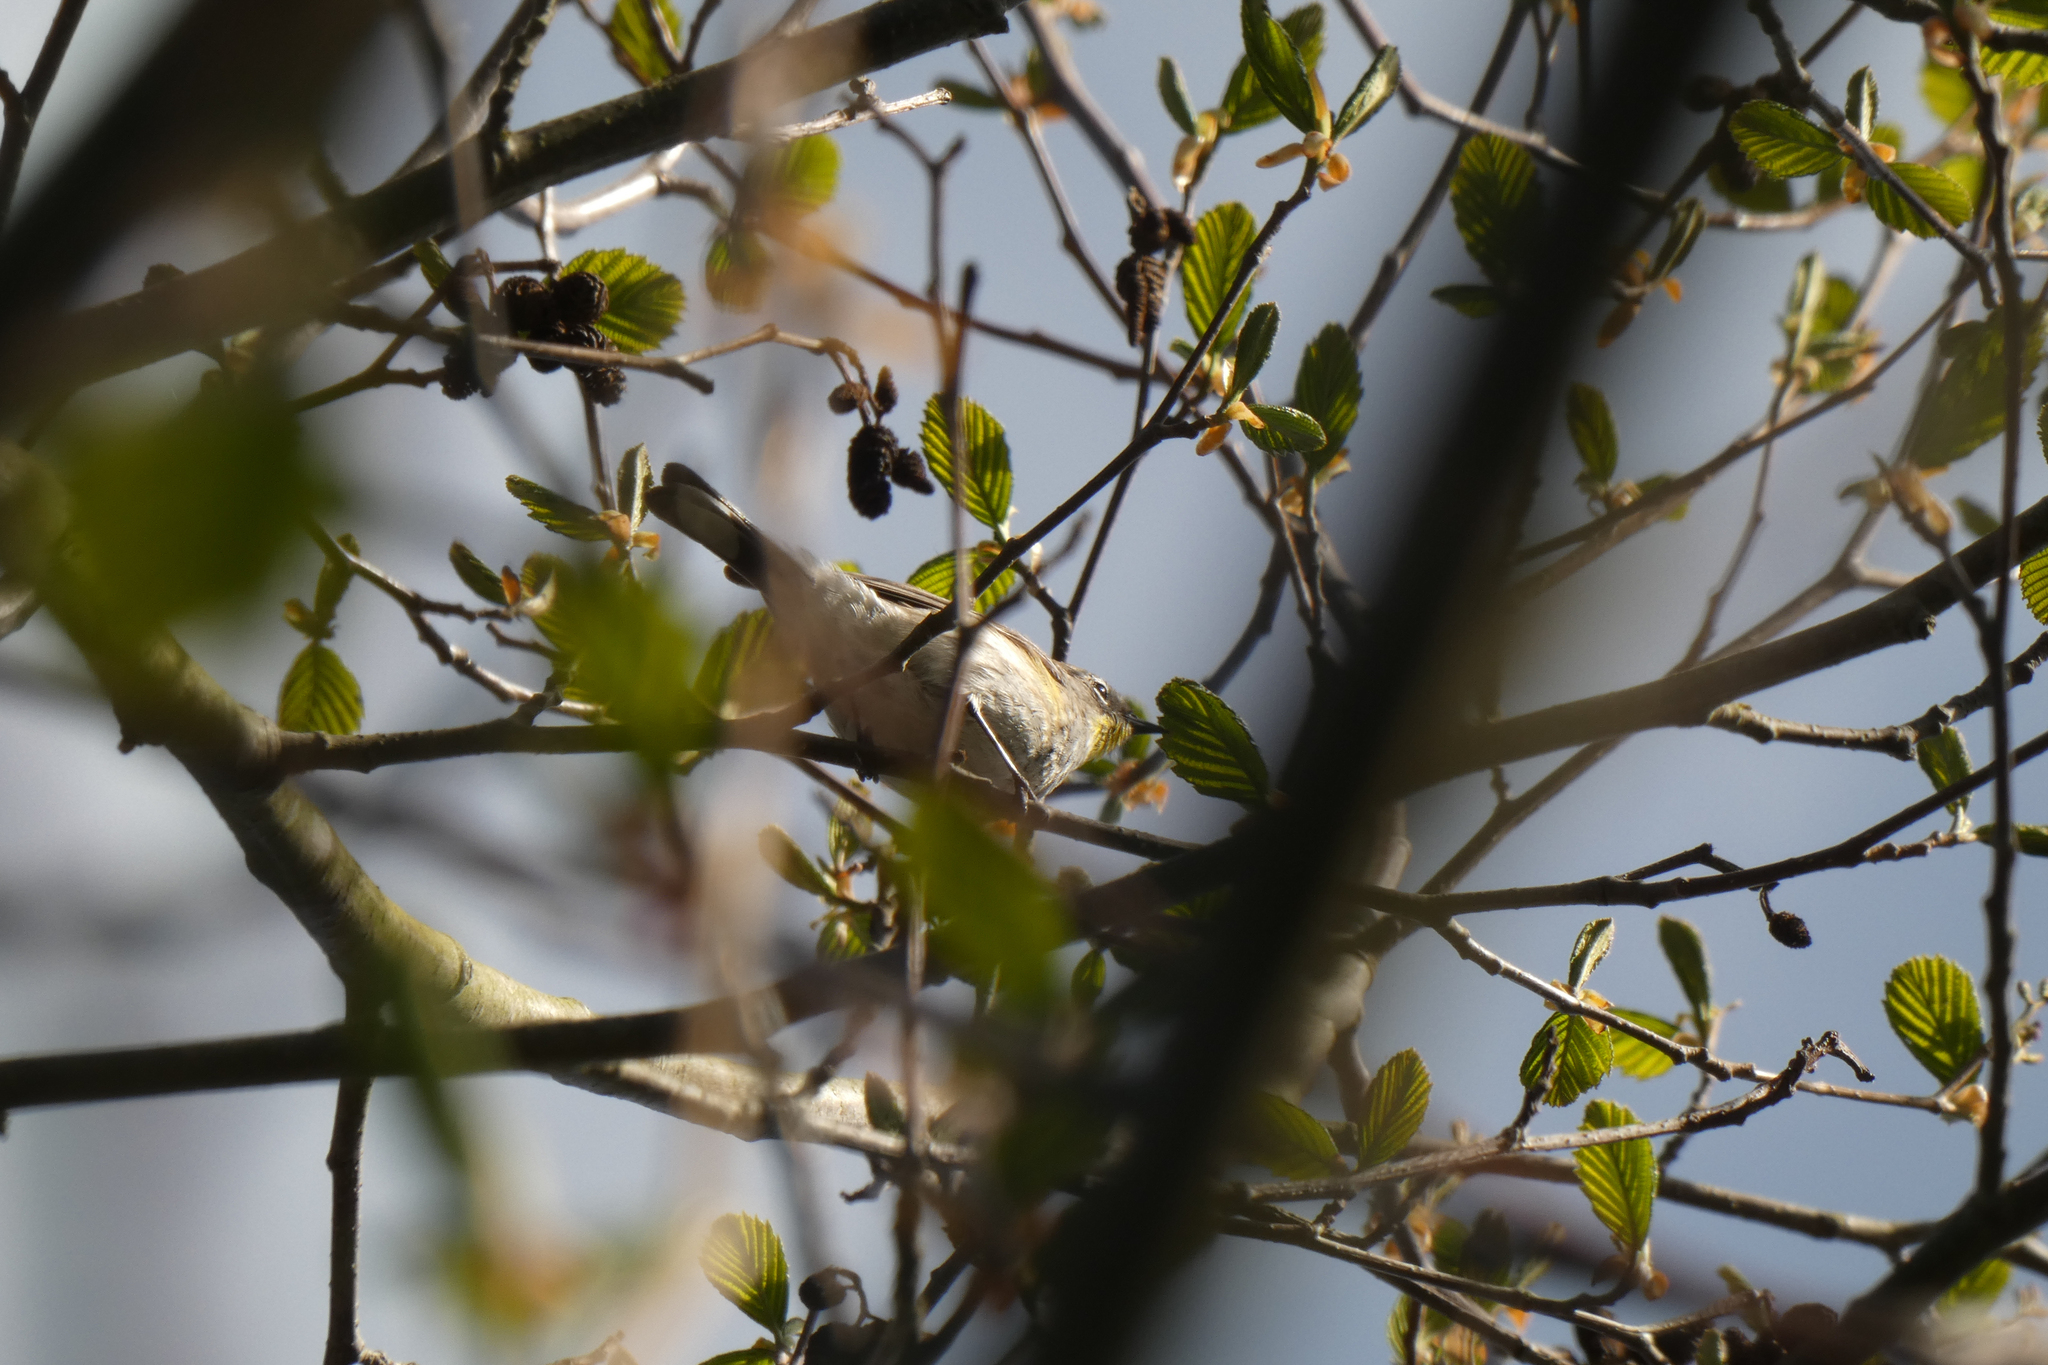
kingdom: Animalia
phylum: Chordata
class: Aves
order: Passeriformes
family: Parulidae
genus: Setophaga
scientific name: Setophaga coronata
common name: Myrtle warbler
